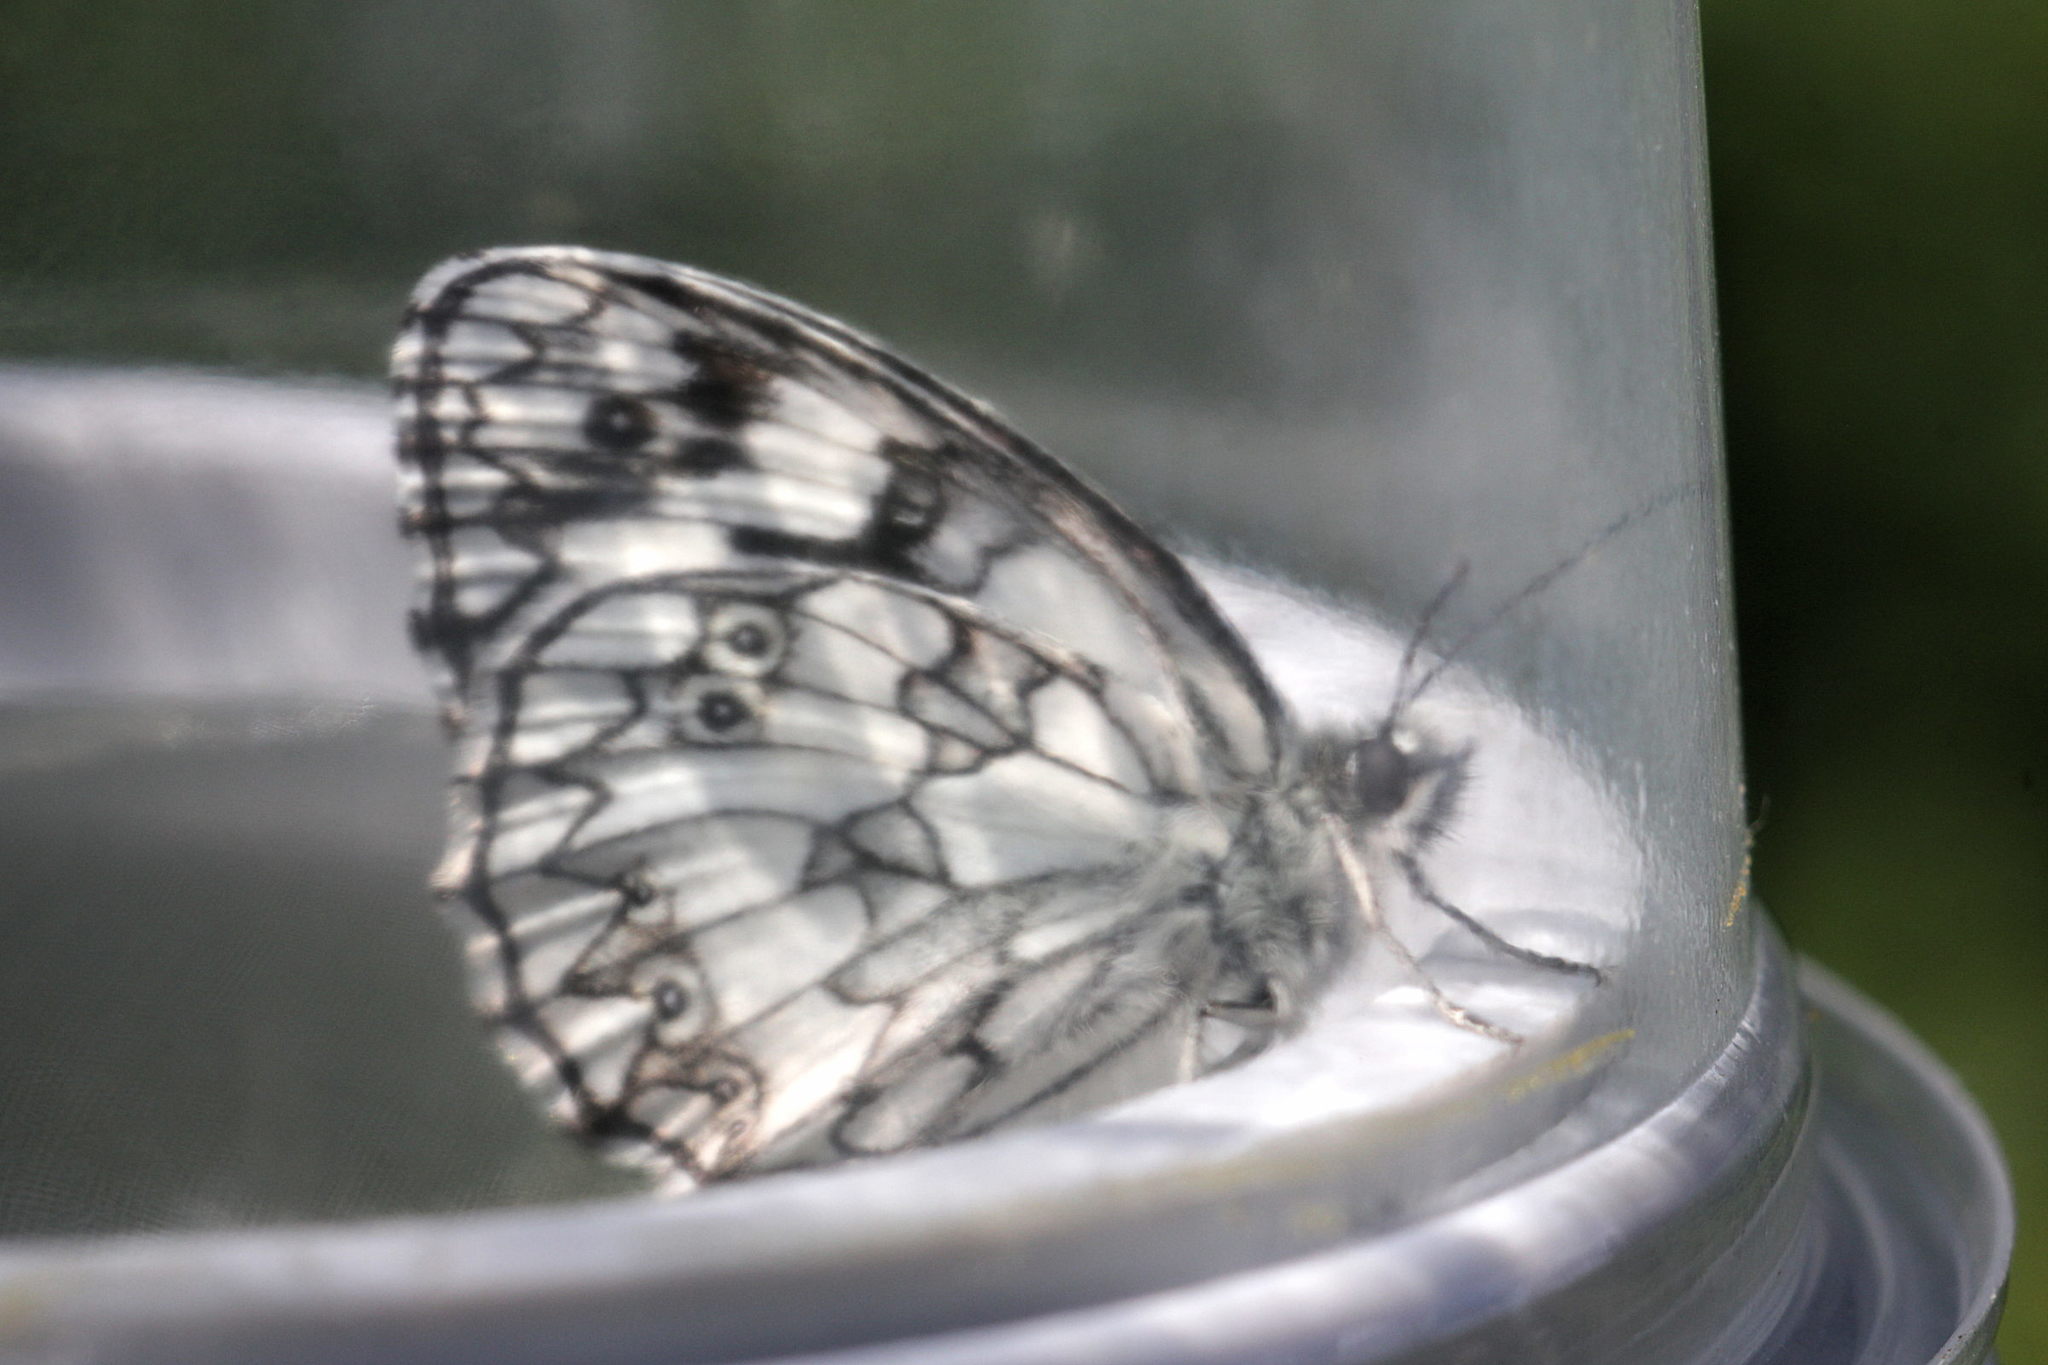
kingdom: Animalia
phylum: Arthropoda
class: Insecta
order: Lepidoptera
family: Nymphalidae
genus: Melanargia
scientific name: Melanargia galathea
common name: Marbled white
